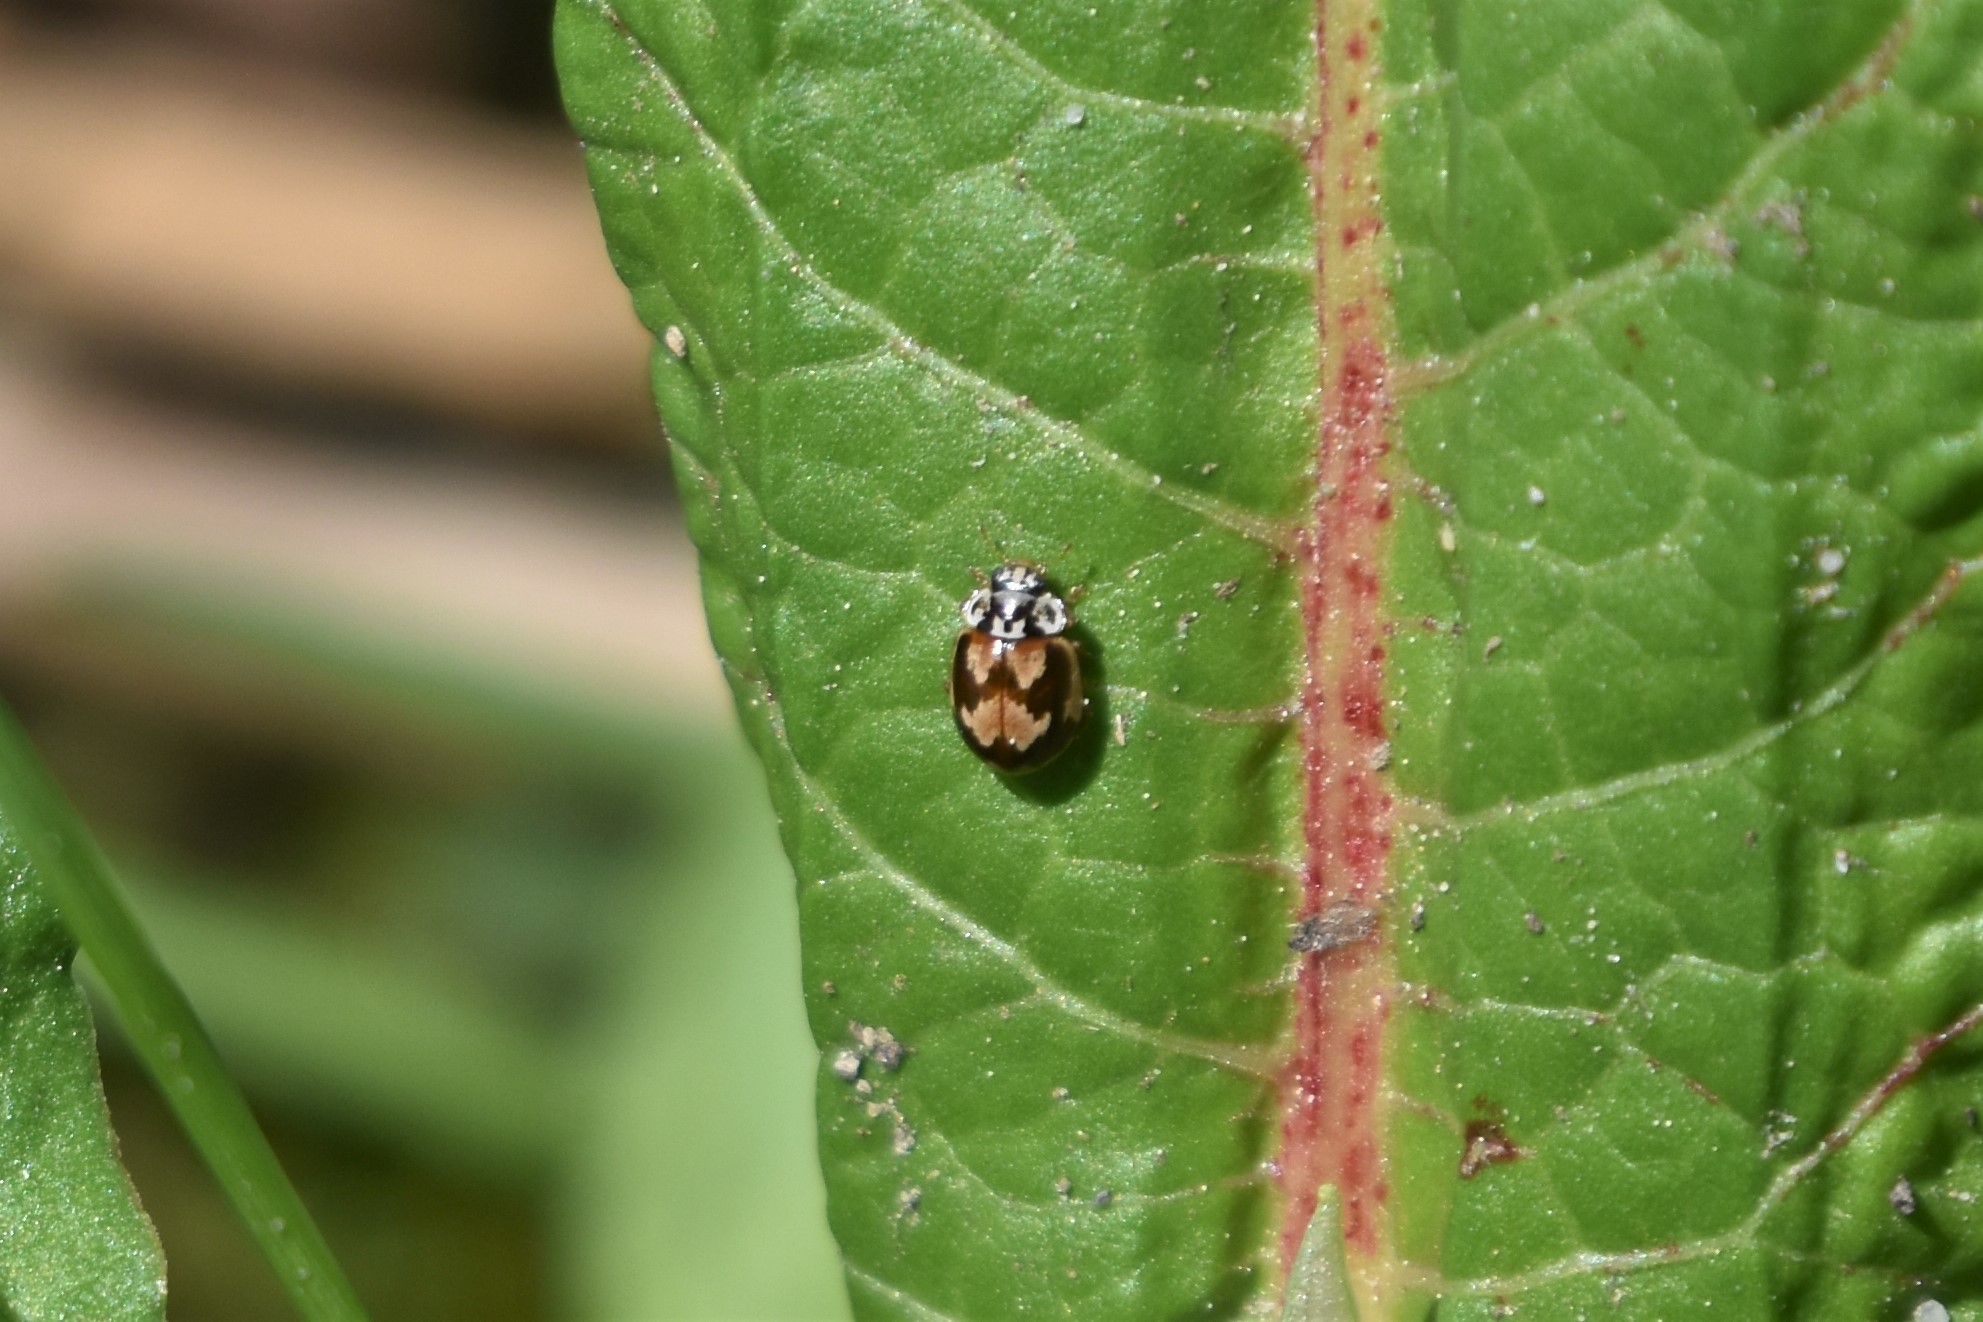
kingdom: Animalia
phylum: Arthropoda
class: Insecta
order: Coleoptera
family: Coccinellidae
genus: Mulsantina
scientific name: Mulsantina picta
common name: Painted ladybird
